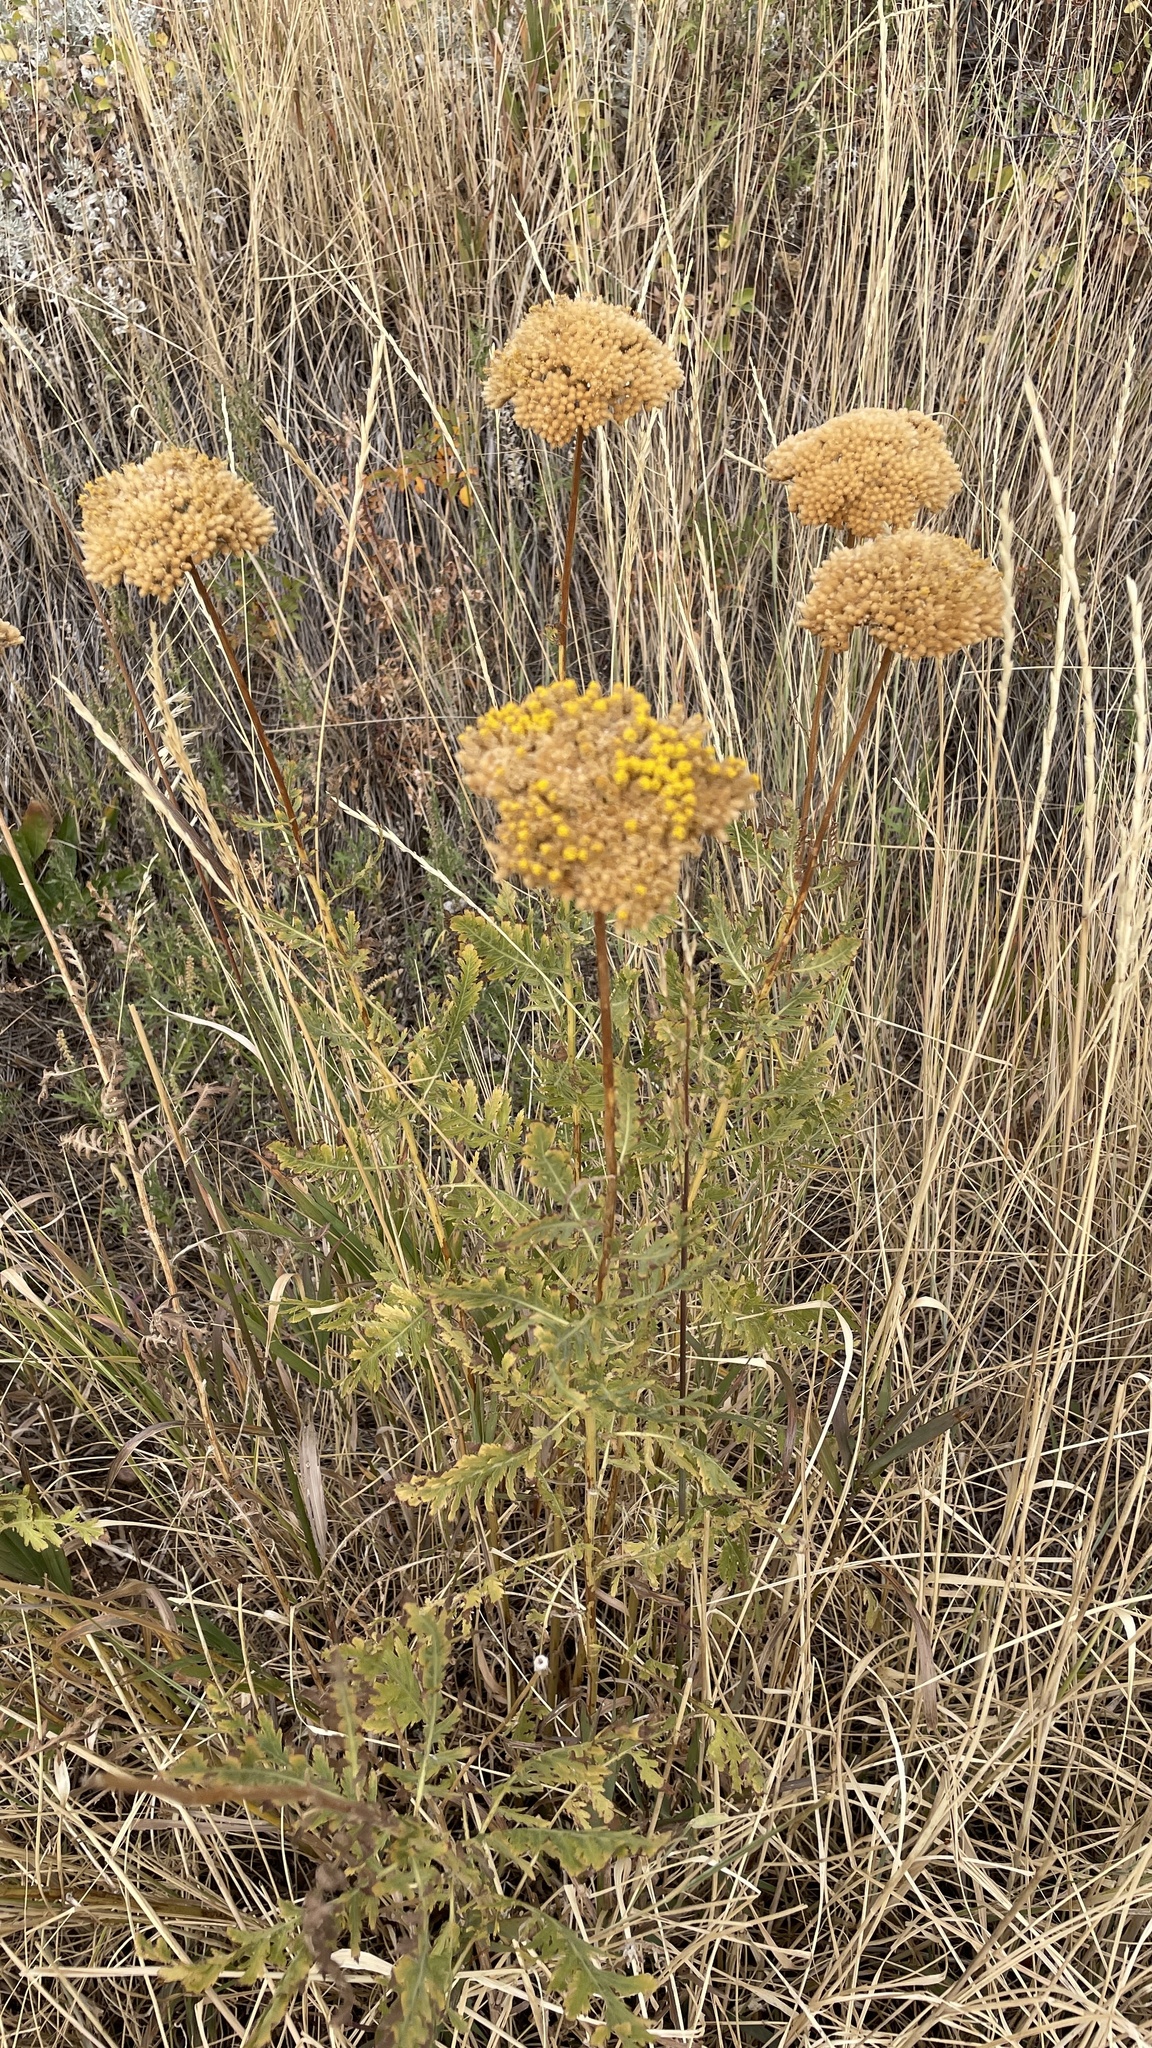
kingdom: Plantae
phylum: Tracheophyta
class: Magnoliopsida
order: Asterales
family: Asteraceae
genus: Achillea
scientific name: Achillea filipendulina
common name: Fernleaf yarrow
